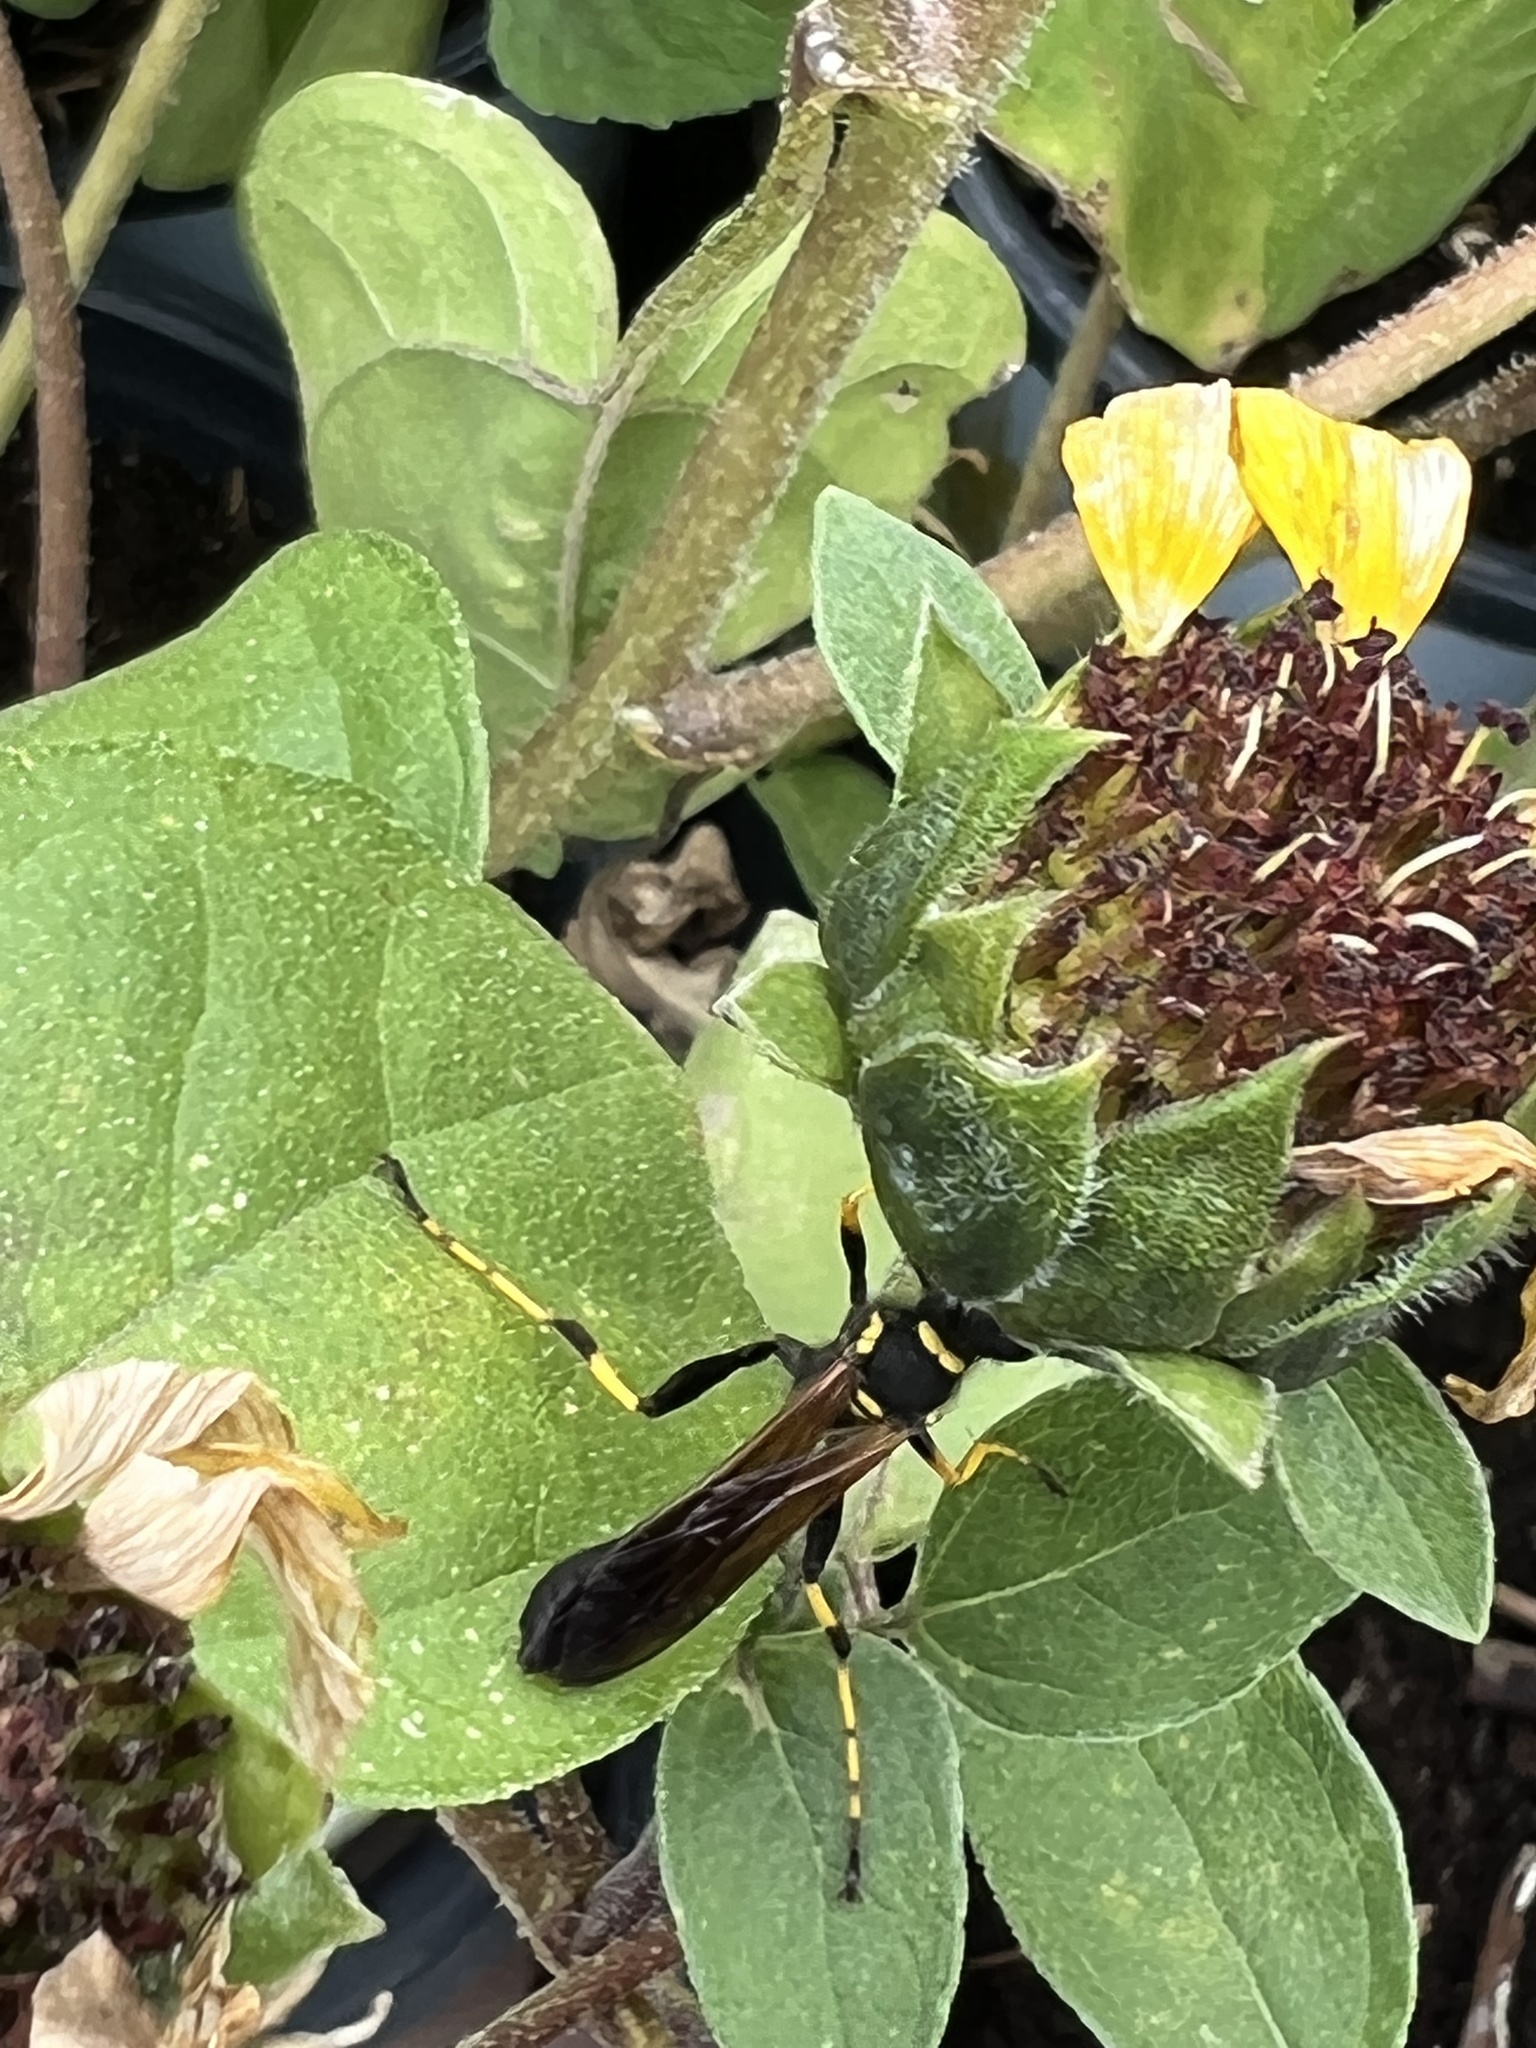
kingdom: Animalia
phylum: Arthropoda
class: Insecta
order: Hymenoptera
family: Sphecidae
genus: Sceliphron
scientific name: Sceliphron caementarium
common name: Mud dauber
